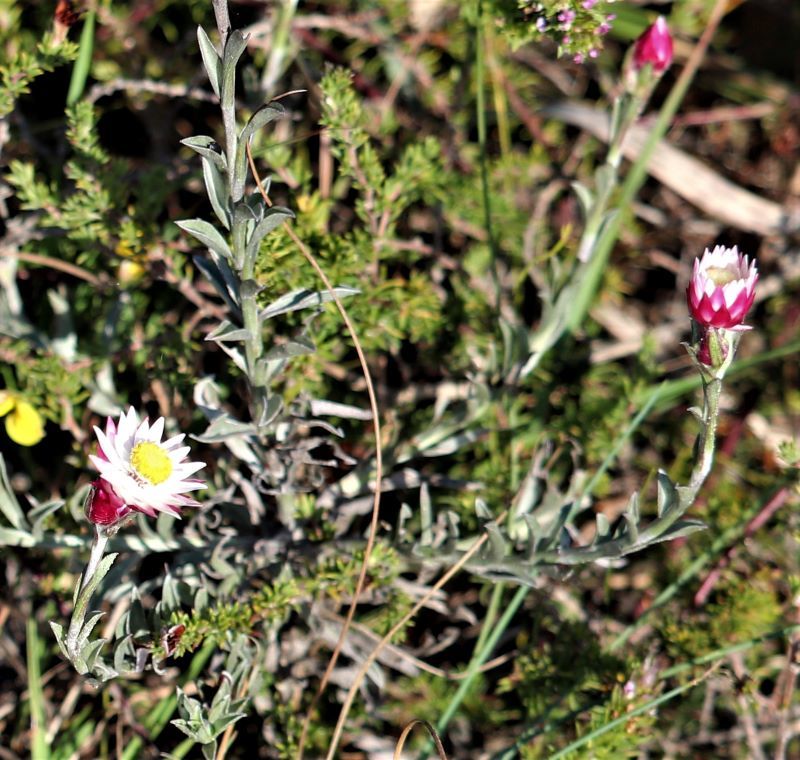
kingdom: Plantae
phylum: Tracheophyta
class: Magnoliopsida
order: Asterales
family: Asteraceae
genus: Achyranthemum
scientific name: Achyranthemum affine
